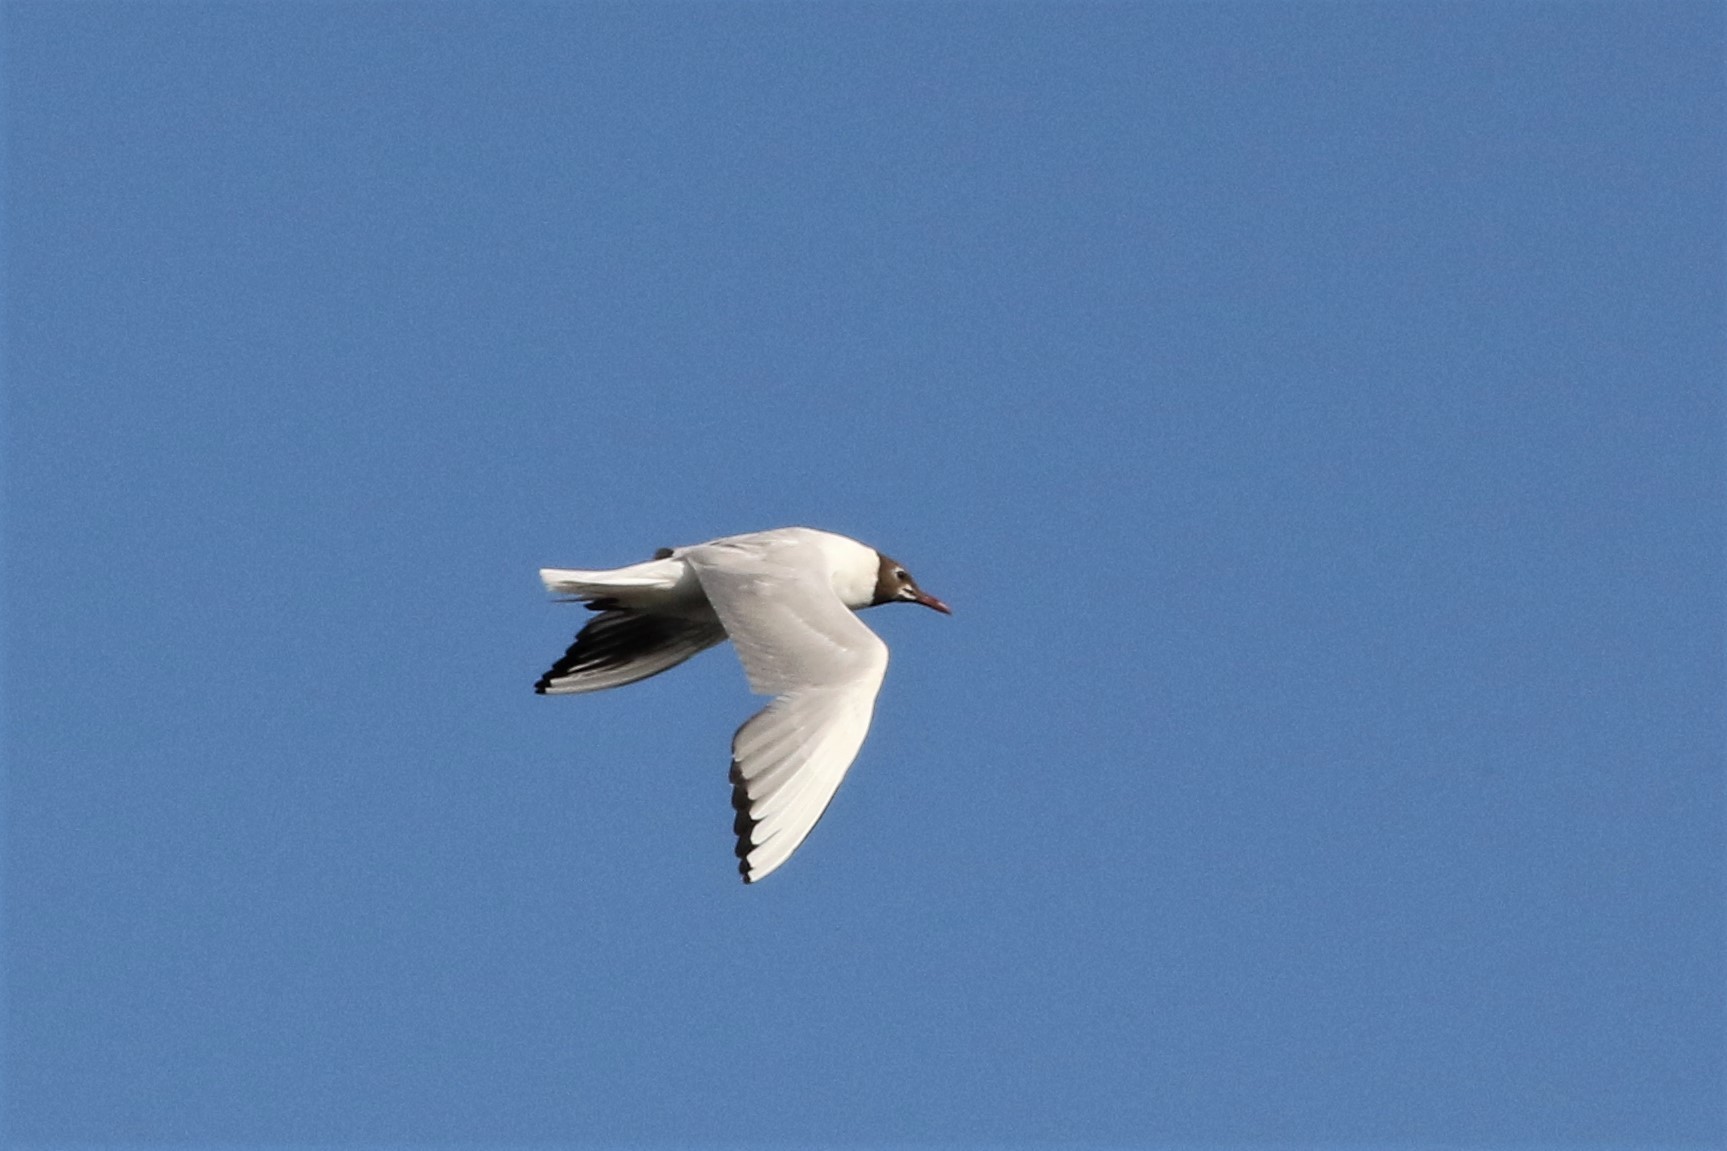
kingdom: Animalia
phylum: Chordata
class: Aves
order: Charadriiformes
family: Laridae
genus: Chroicocephalus
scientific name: Chroicocephalus ridibundus
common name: Black-headed gull
